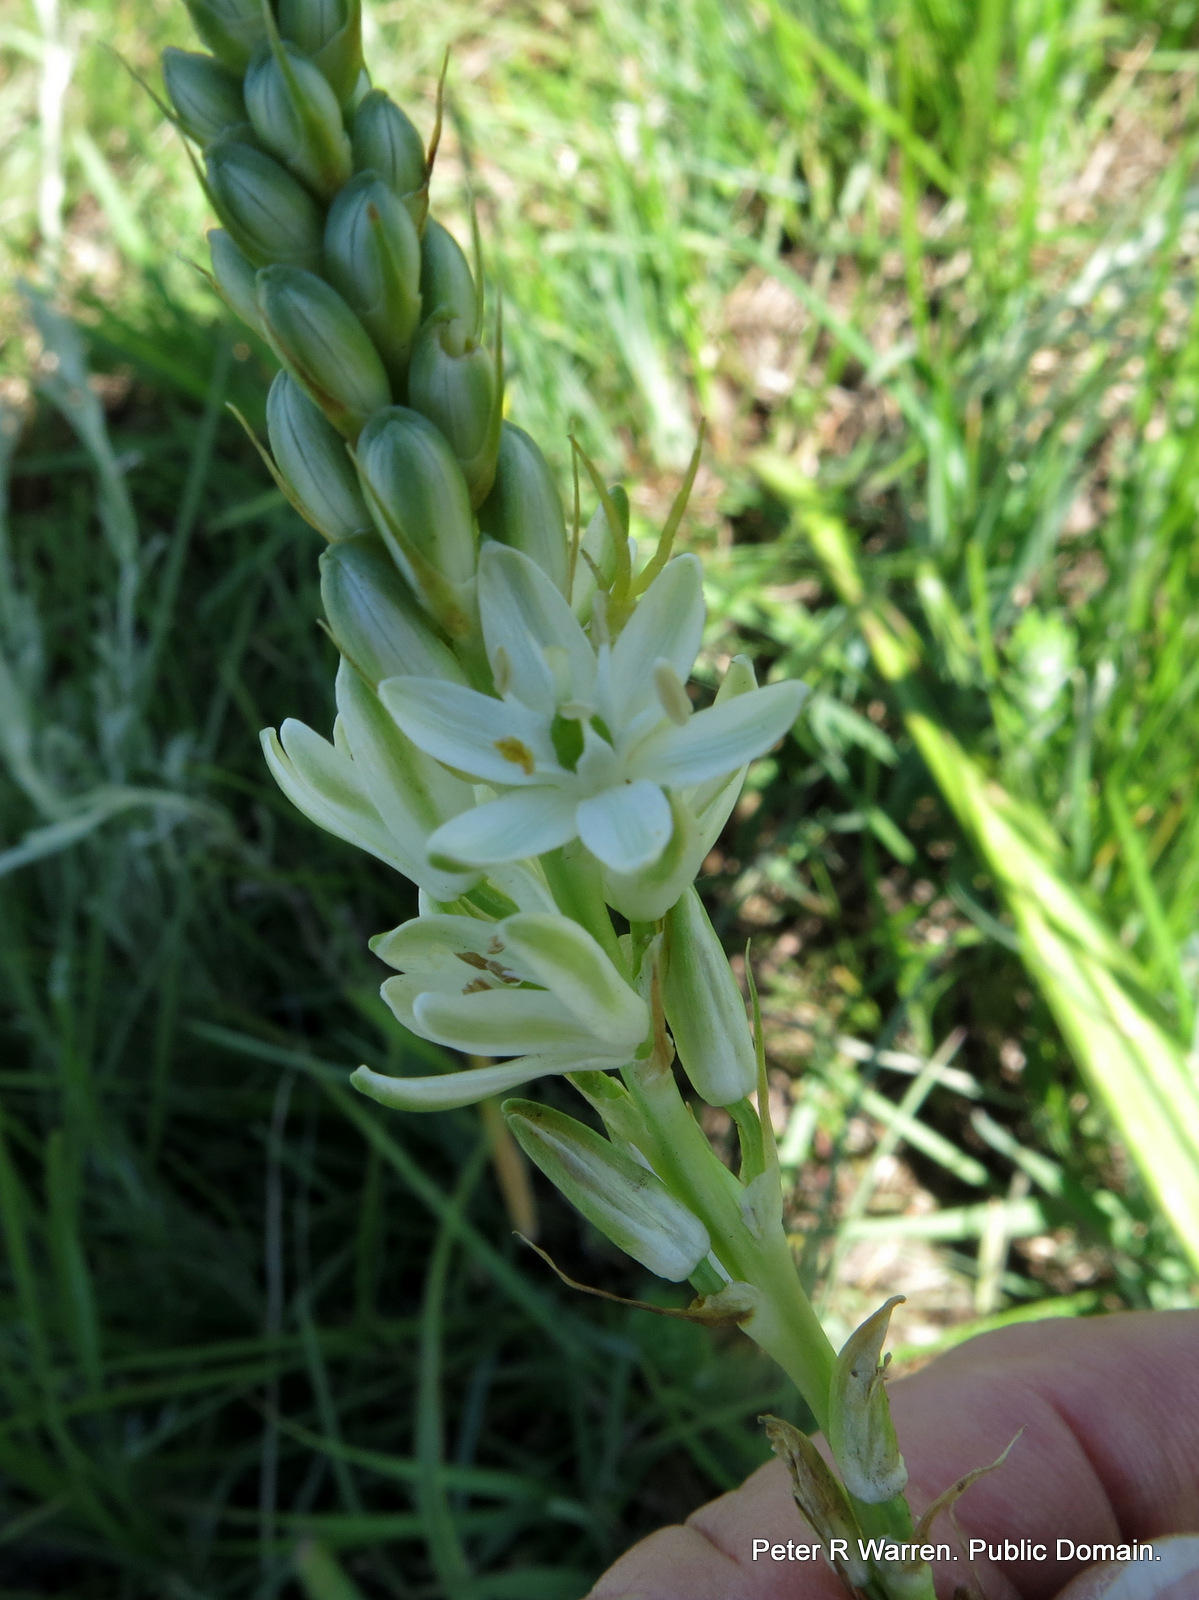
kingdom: Plantae
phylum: Tracheophyta
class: Liliopsida
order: Asparagales
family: Asparagaceae
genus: Ornithogalum
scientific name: Ornithogalum graminifolium
